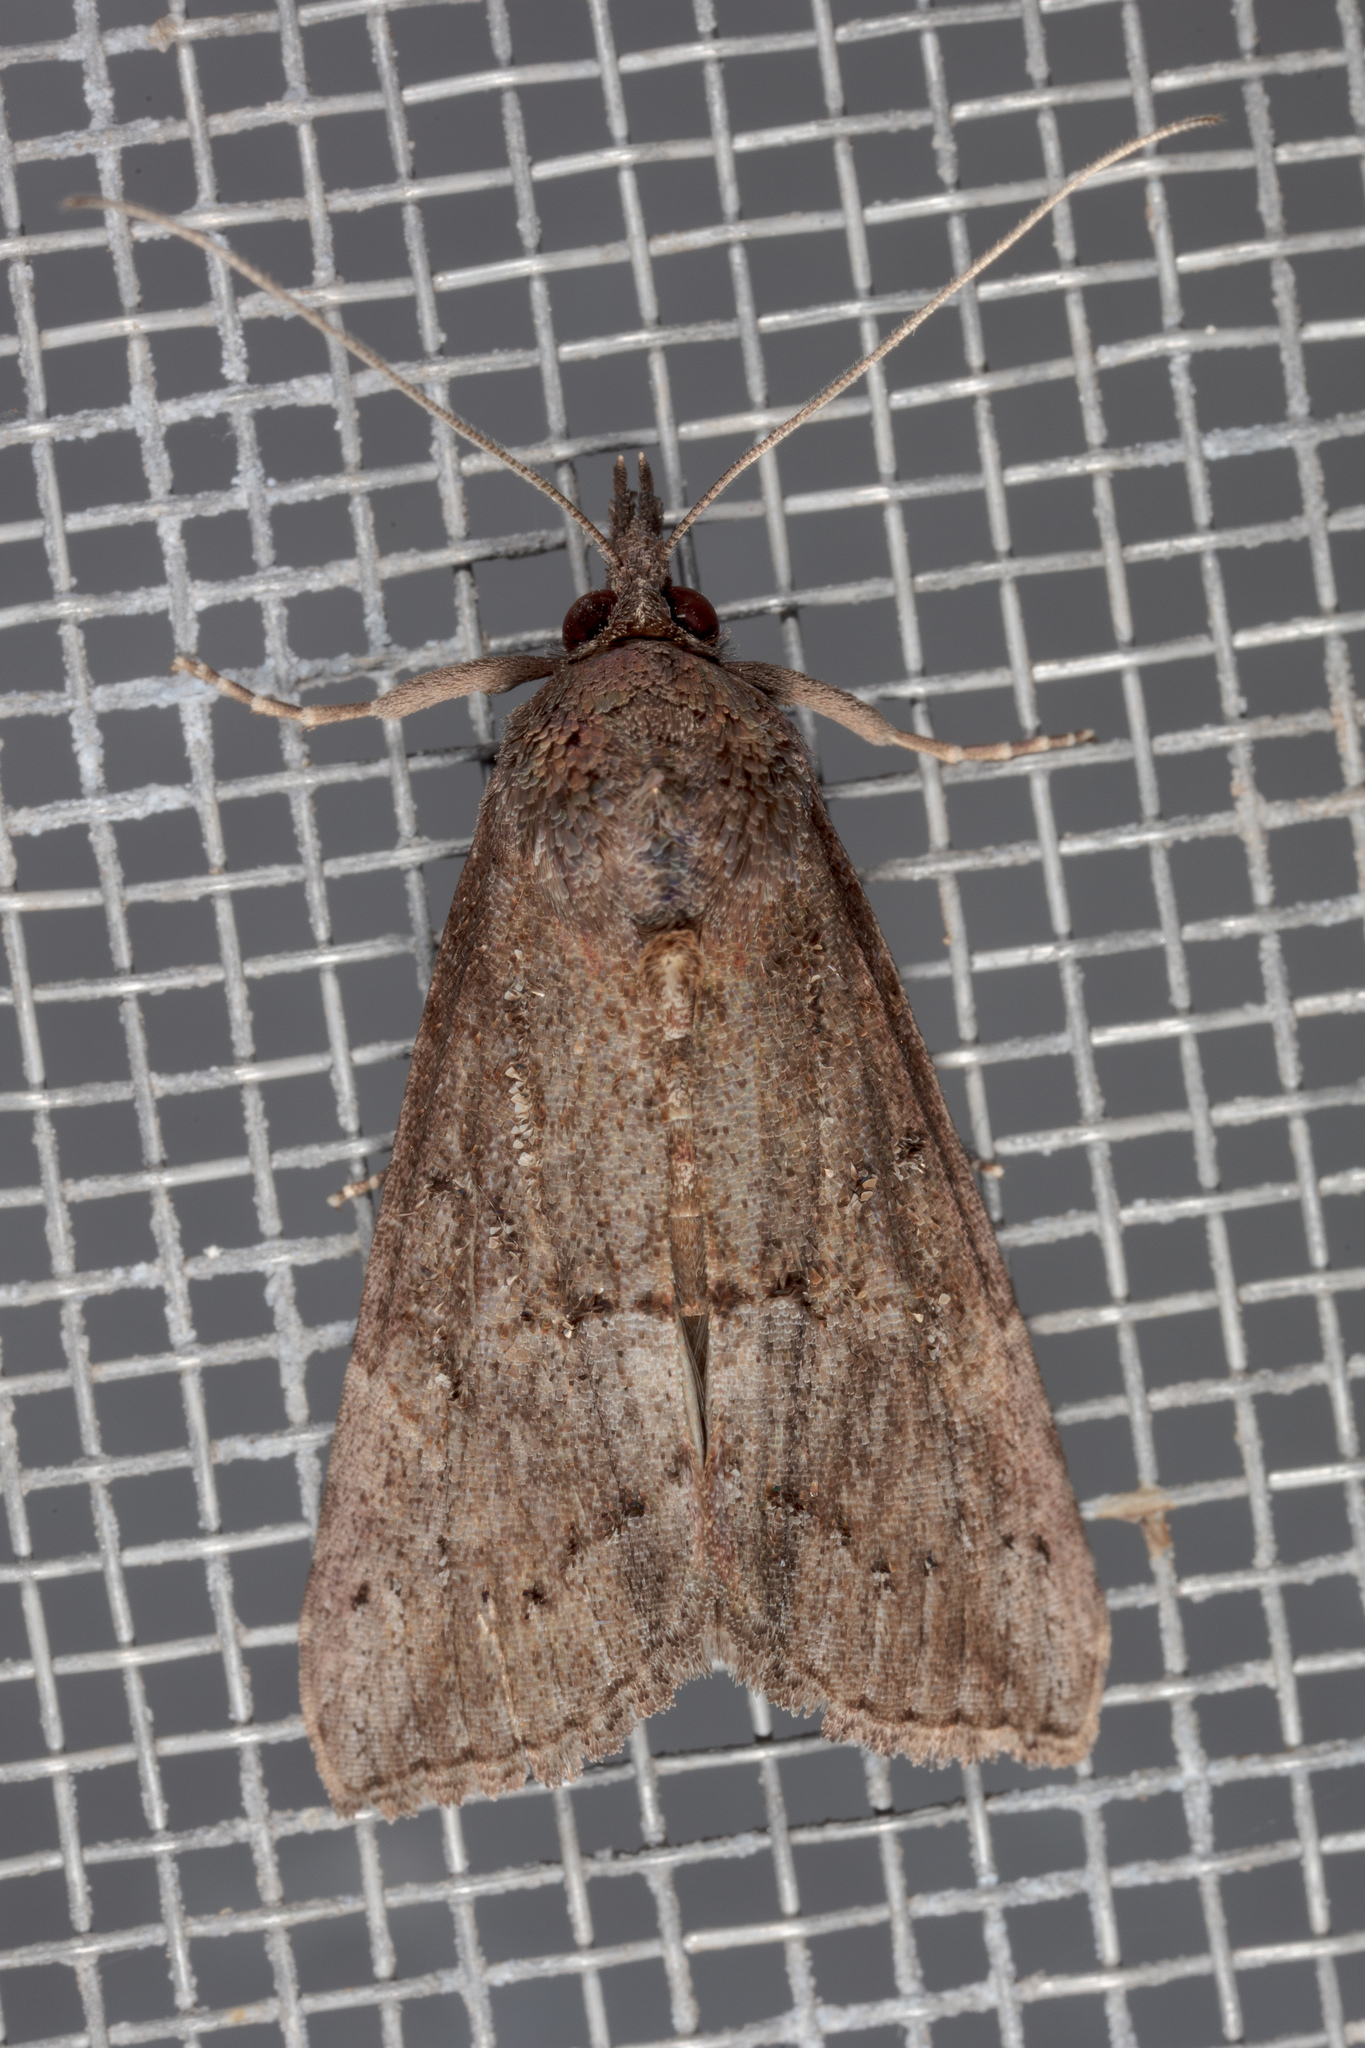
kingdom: Animalia
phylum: Arthropoda
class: Insecta
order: Lepidoptera
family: Erebidae
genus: Hypena
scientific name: Hypena scabra
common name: Green cloverworm
